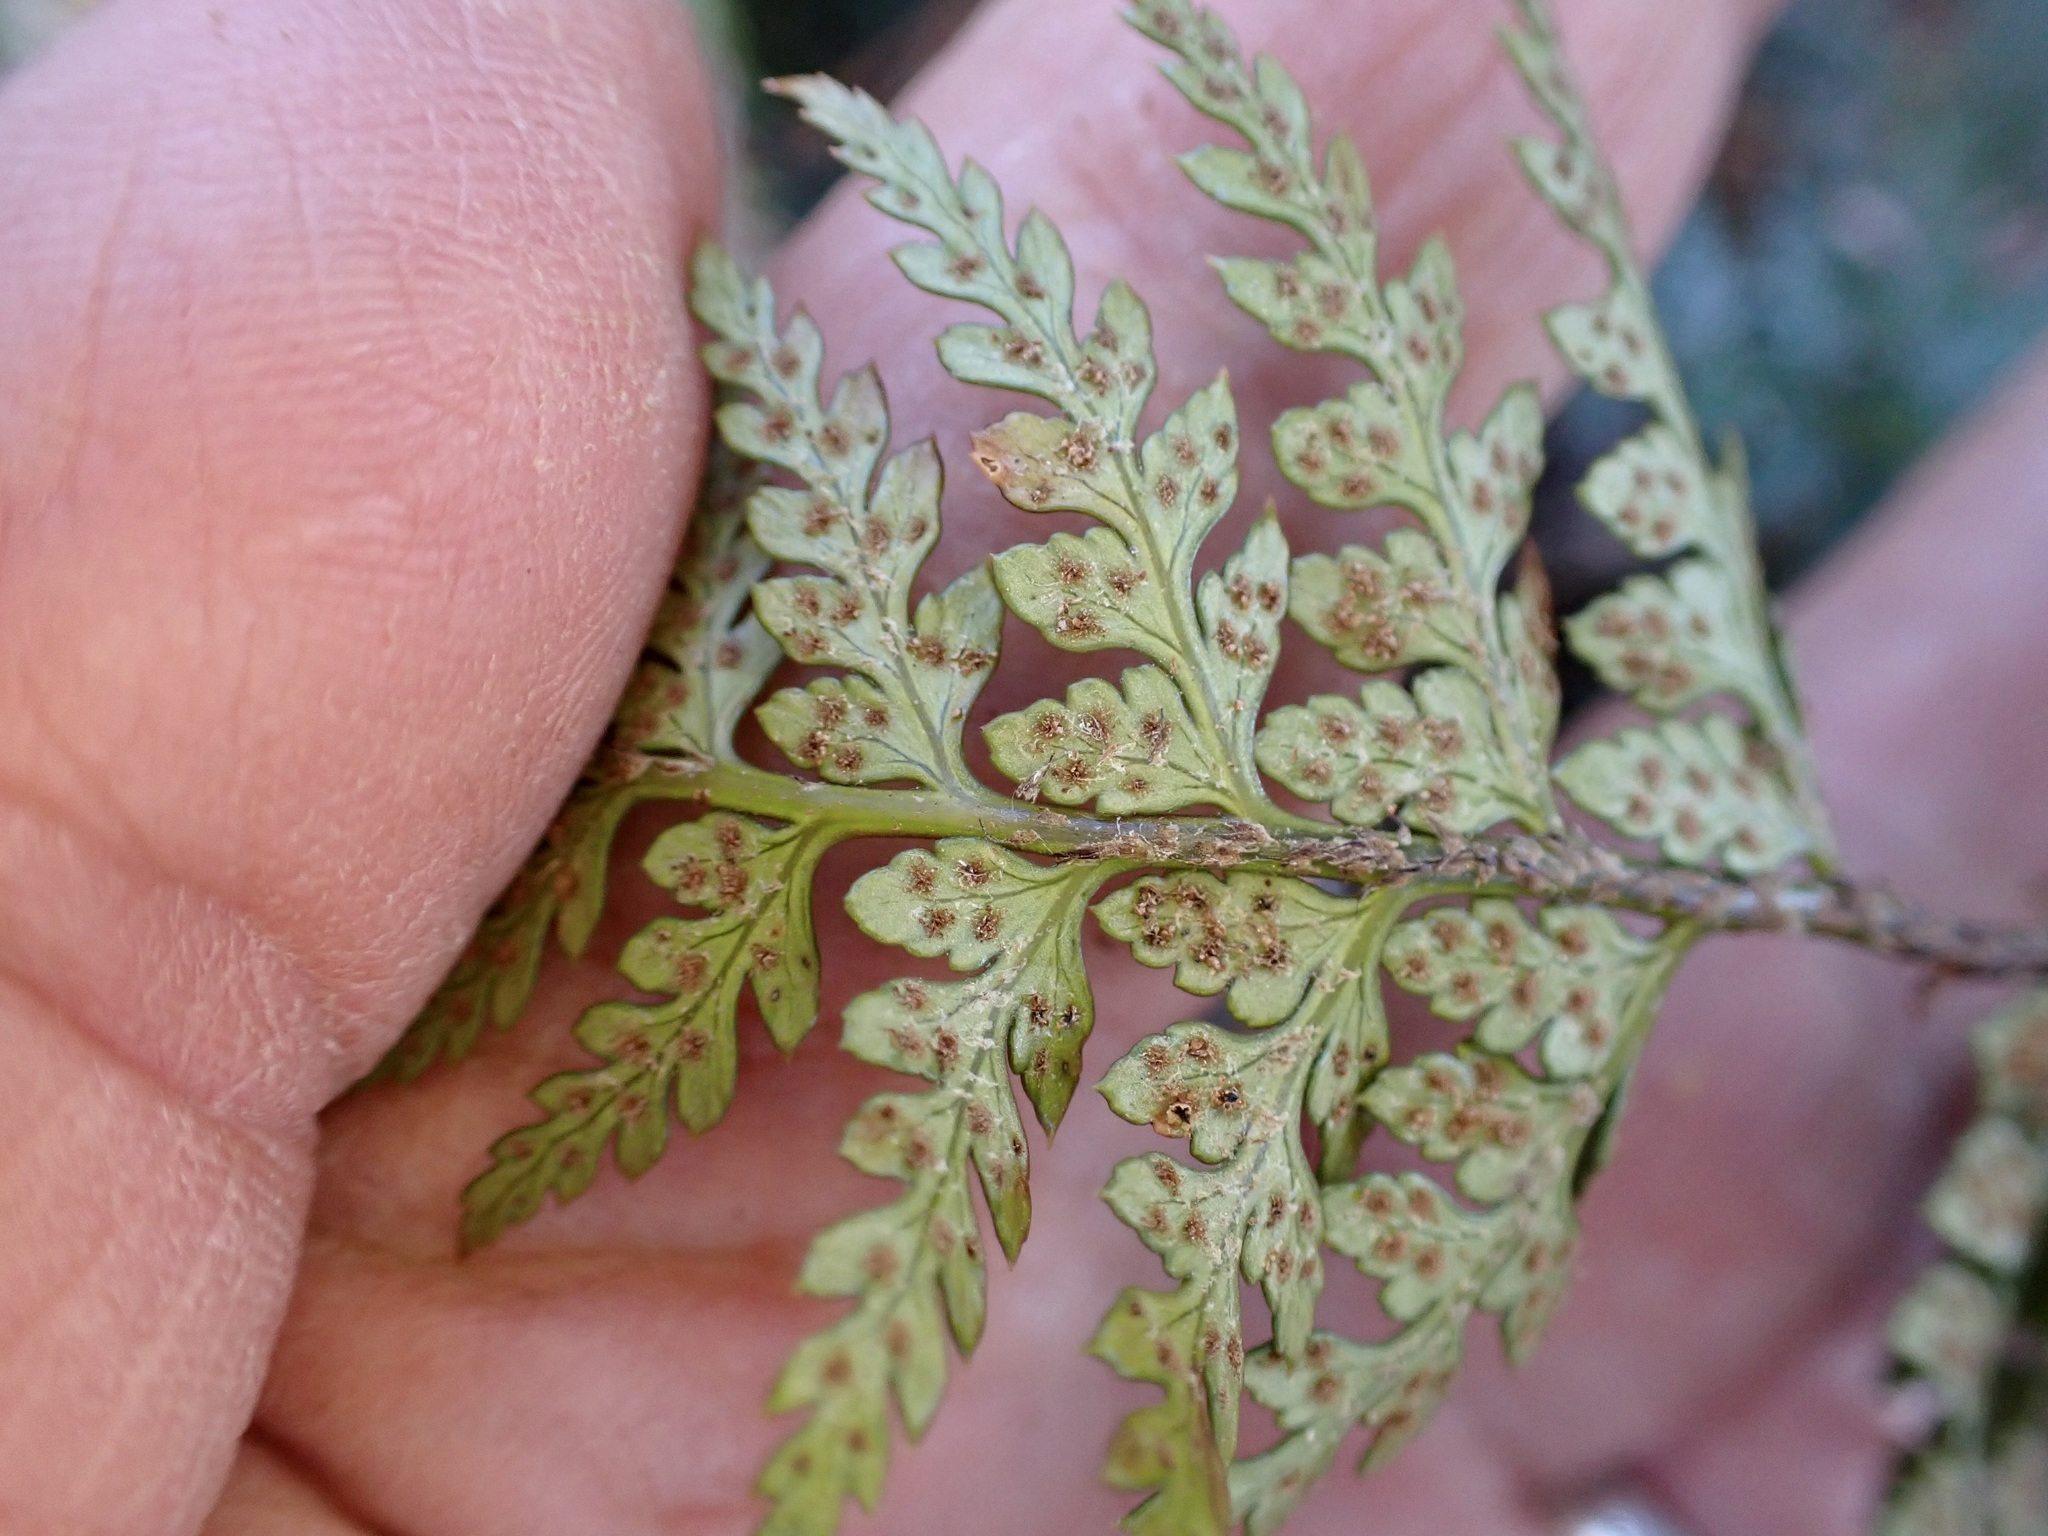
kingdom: Plantae
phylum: Tracheophyta
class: Polypodiopsida
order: Polypodiales
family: Dryopteridaceae
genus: Polystichum
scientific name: Polystichum oculatum
